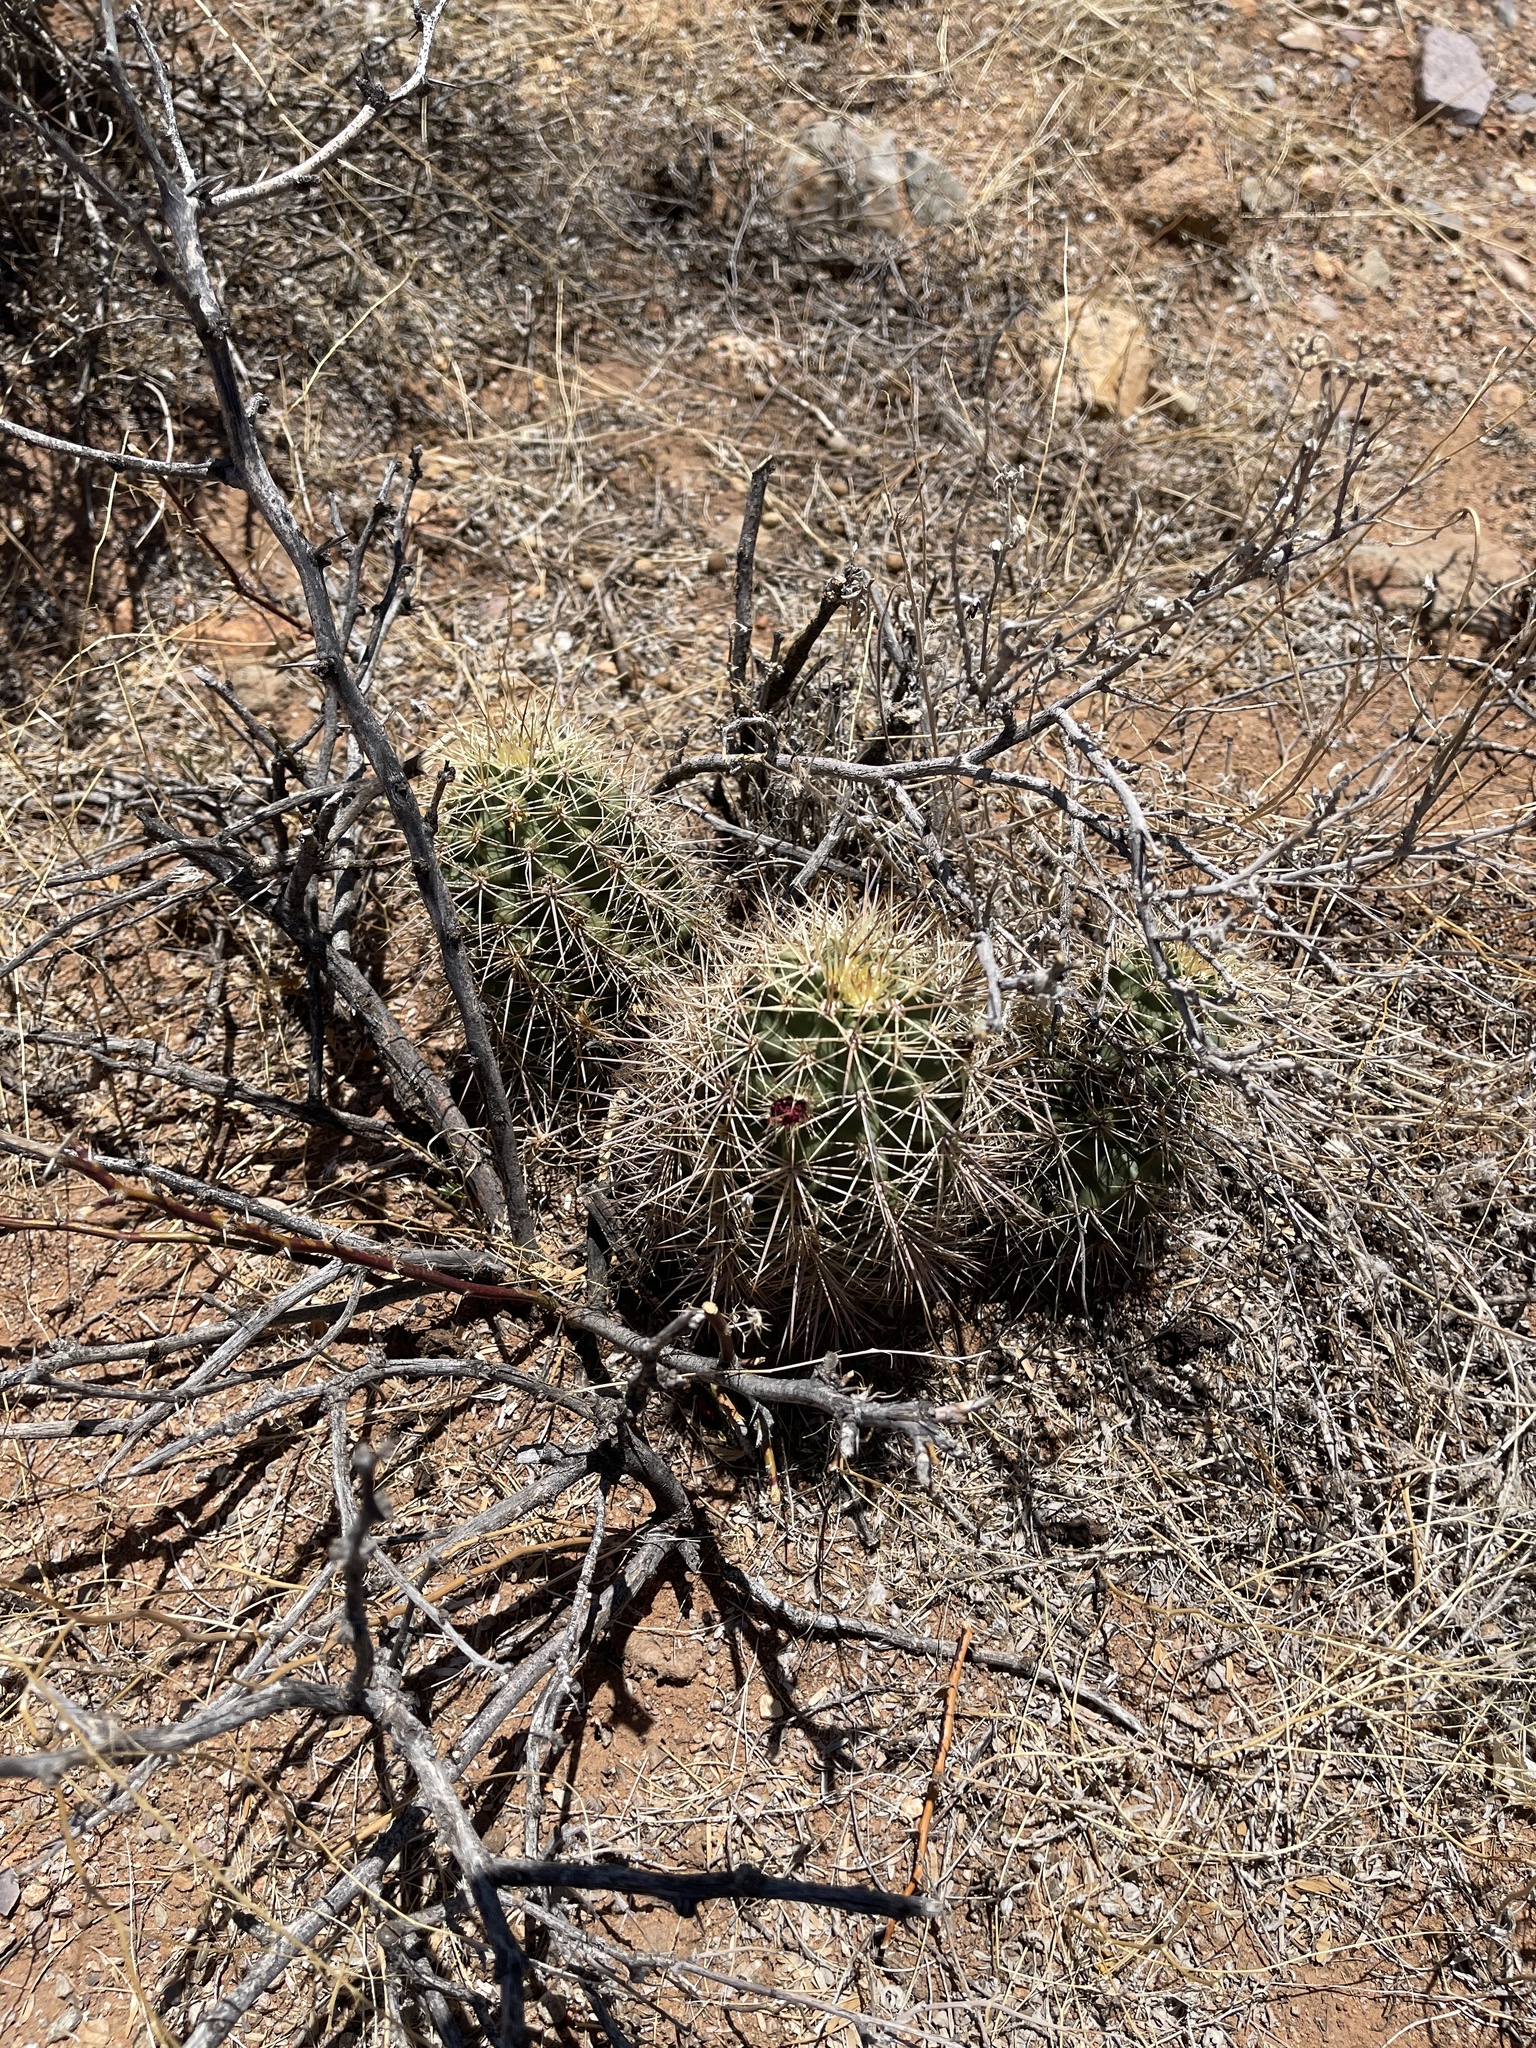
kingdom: Plantae
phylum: Tracheophyta
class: Magnoliopsida
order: Caryophyllales
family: Cactaceae
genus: Echinocereus
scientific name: Echinocereus coccineus
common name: Scarlet hedgehog cactus
